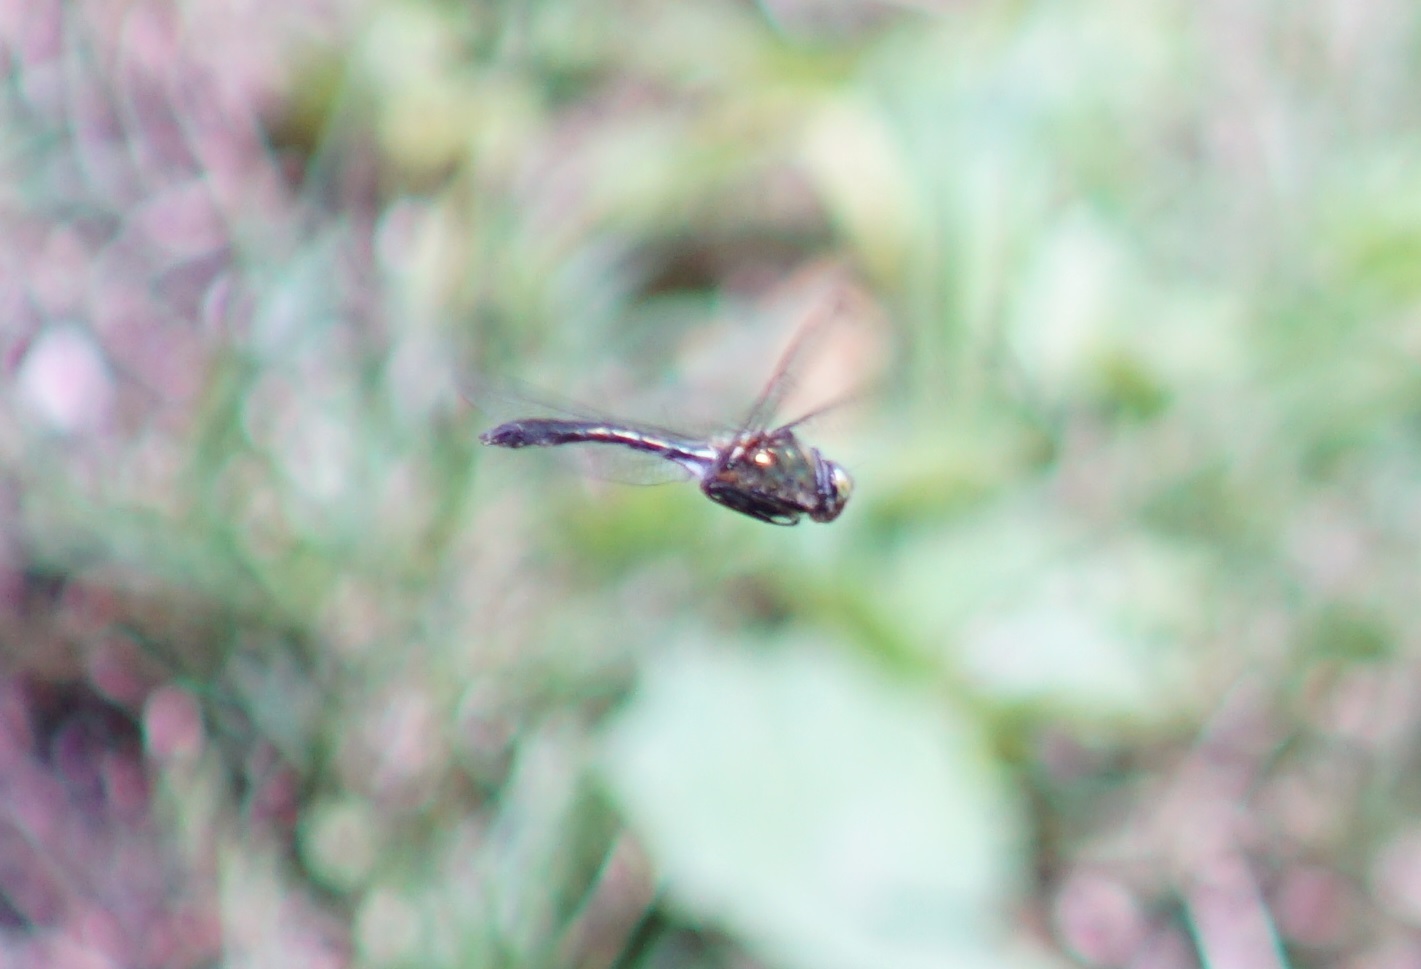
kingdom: Animalia
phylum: Arthropoda
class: Insecta
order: Odonata
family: Corduliidae
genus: Cordulia
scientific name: Cordulia aenea
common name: Downy emerald
